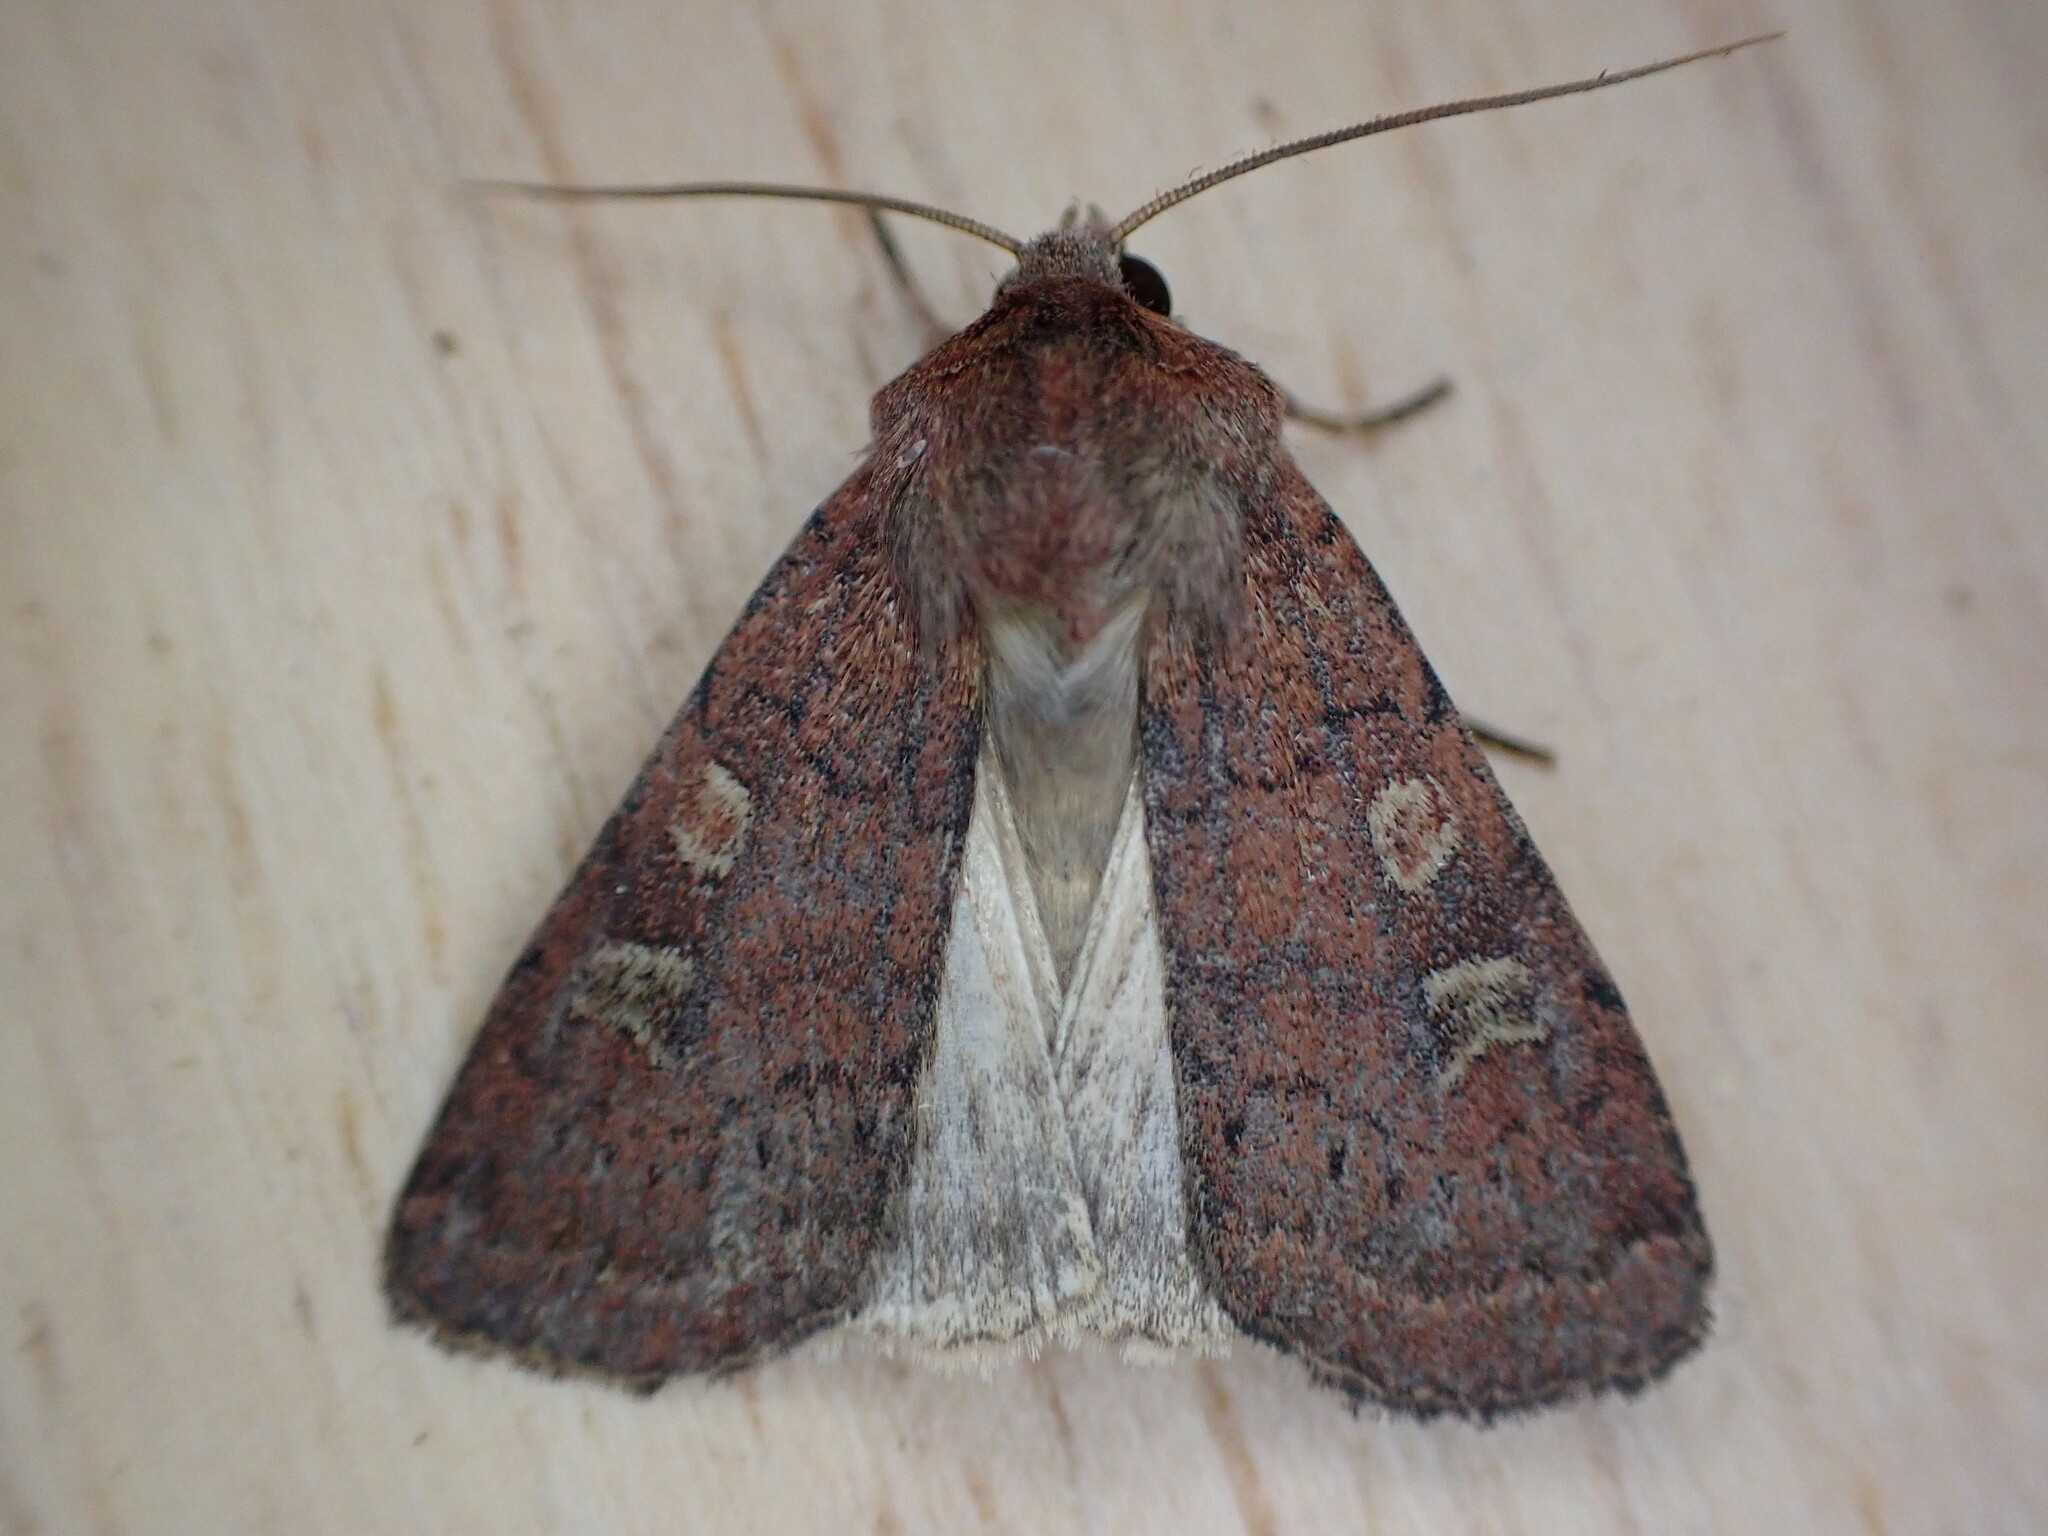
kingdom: Animalia
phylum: Arthropoda
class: Insecta
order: Lepidoptera
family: Noctuidae
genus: Xestia
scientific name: Xestia xanthographa
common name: Square-spot rustic
